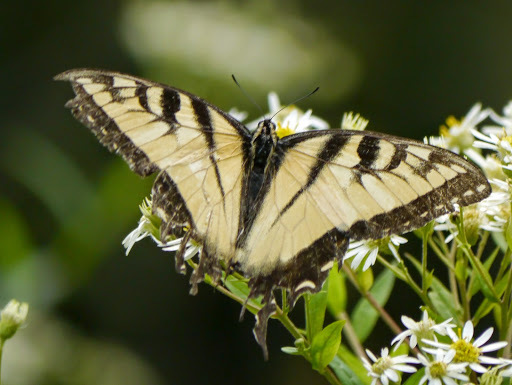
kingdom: Animalia
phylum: Arthropoda
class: Insecta
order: Lepidoptera
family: Papilionidae
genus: Papilio
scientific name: Papilio glaucus
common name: Tiger swallowtail
